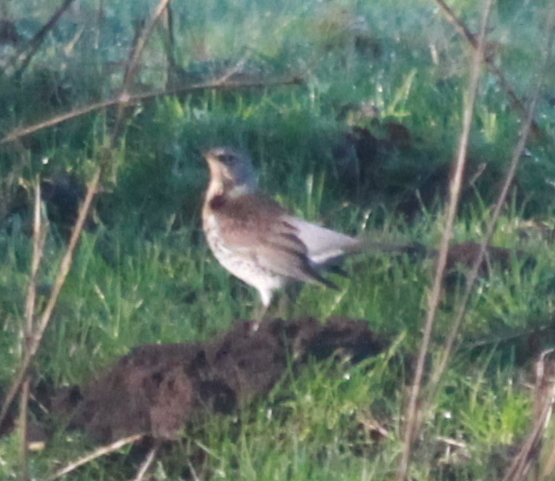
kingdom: Animalia
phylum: Chordata
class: Aves
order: Passeriformes
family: Turdidae
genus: Turdus
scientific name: Turdus pilaris
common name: Fieldfare
